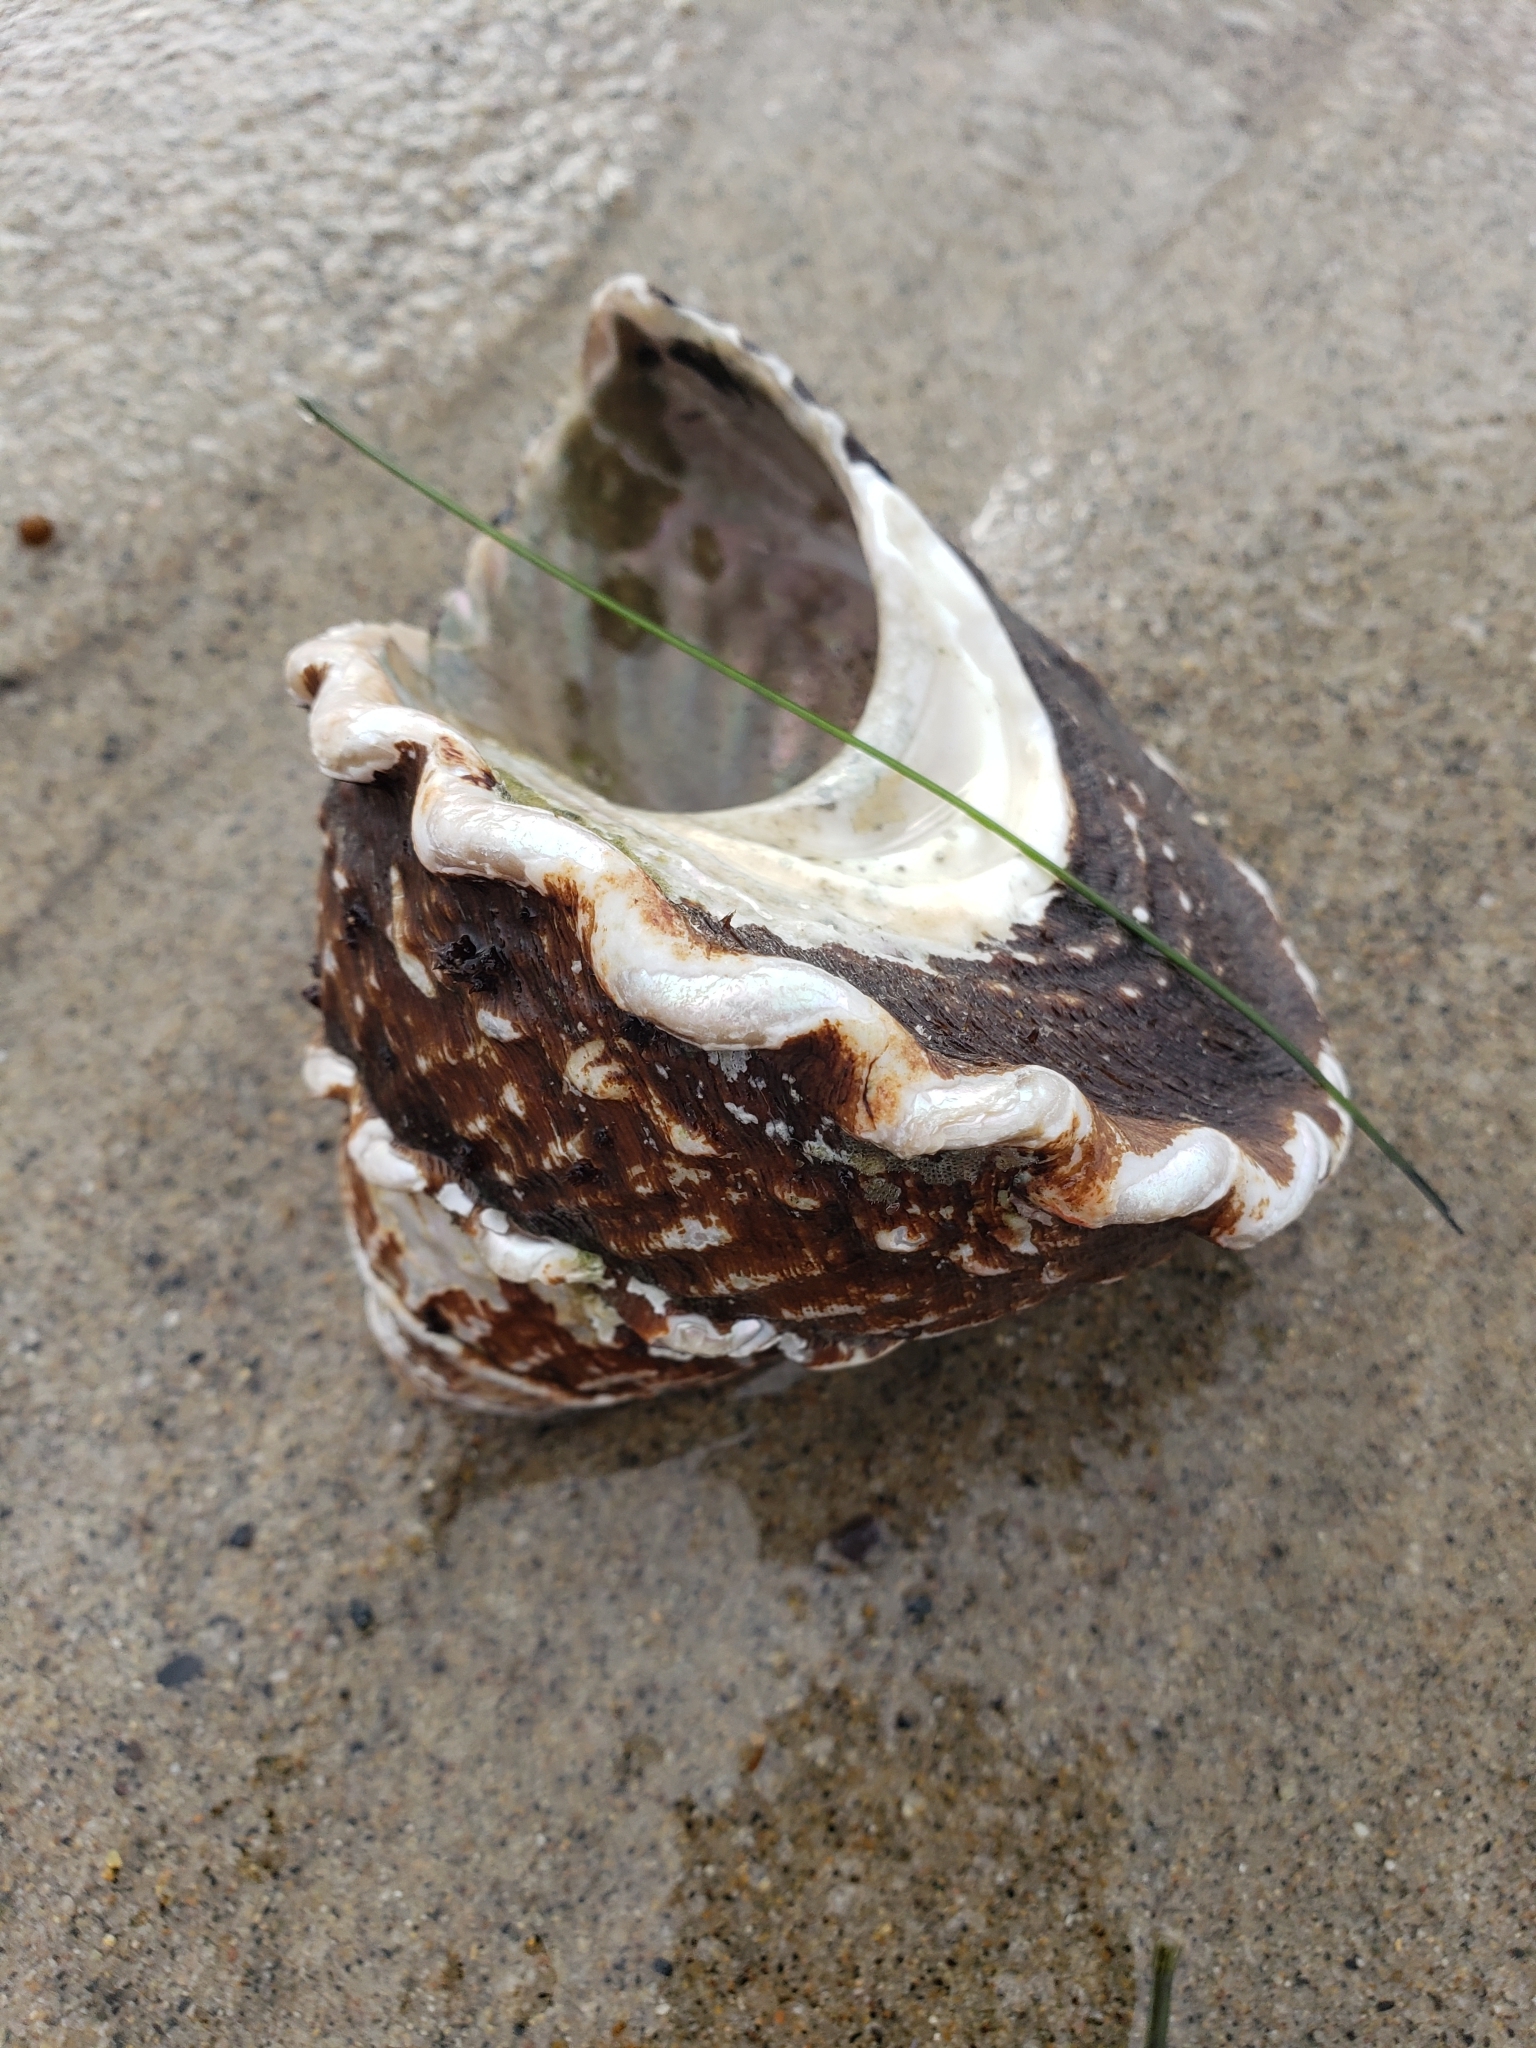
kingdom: Animalia
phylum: Mollusca
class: Gastropoda
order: Trochida
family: Turbinidae
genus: Megastraea
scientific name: Megastraea undosa
